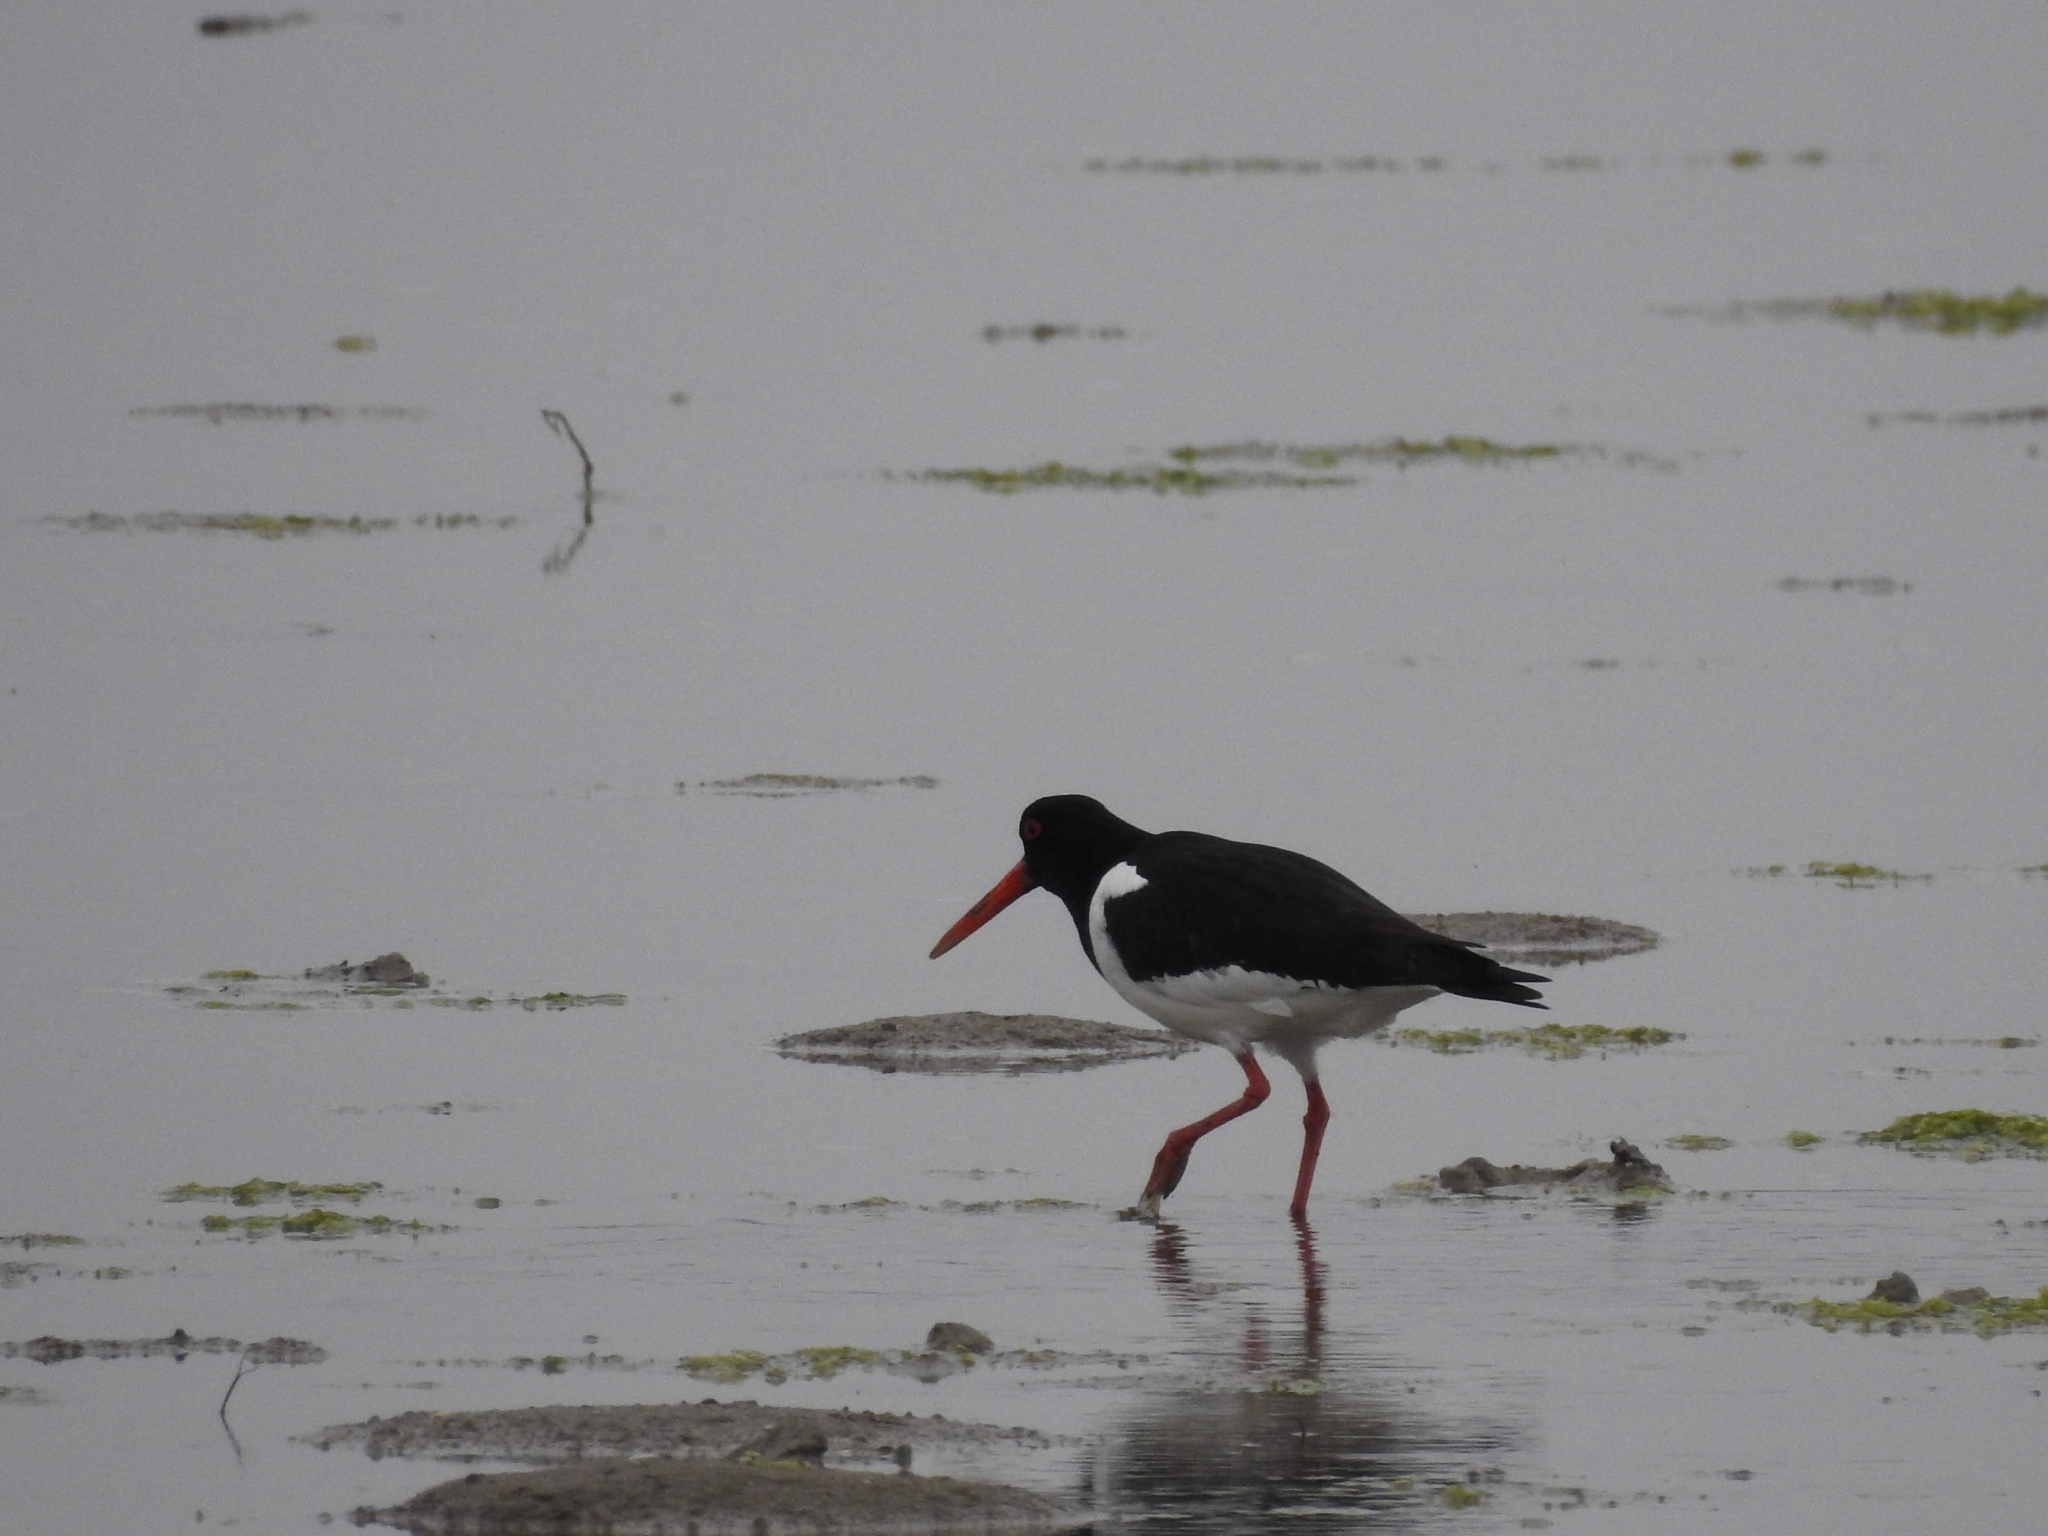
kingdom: Animalia
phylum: Chordata
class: Aves
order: Charadriiformes
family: Haematopodidae
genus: Haematopus
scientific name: Haematopus ostralegus
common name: Eurasian oystercatcher
